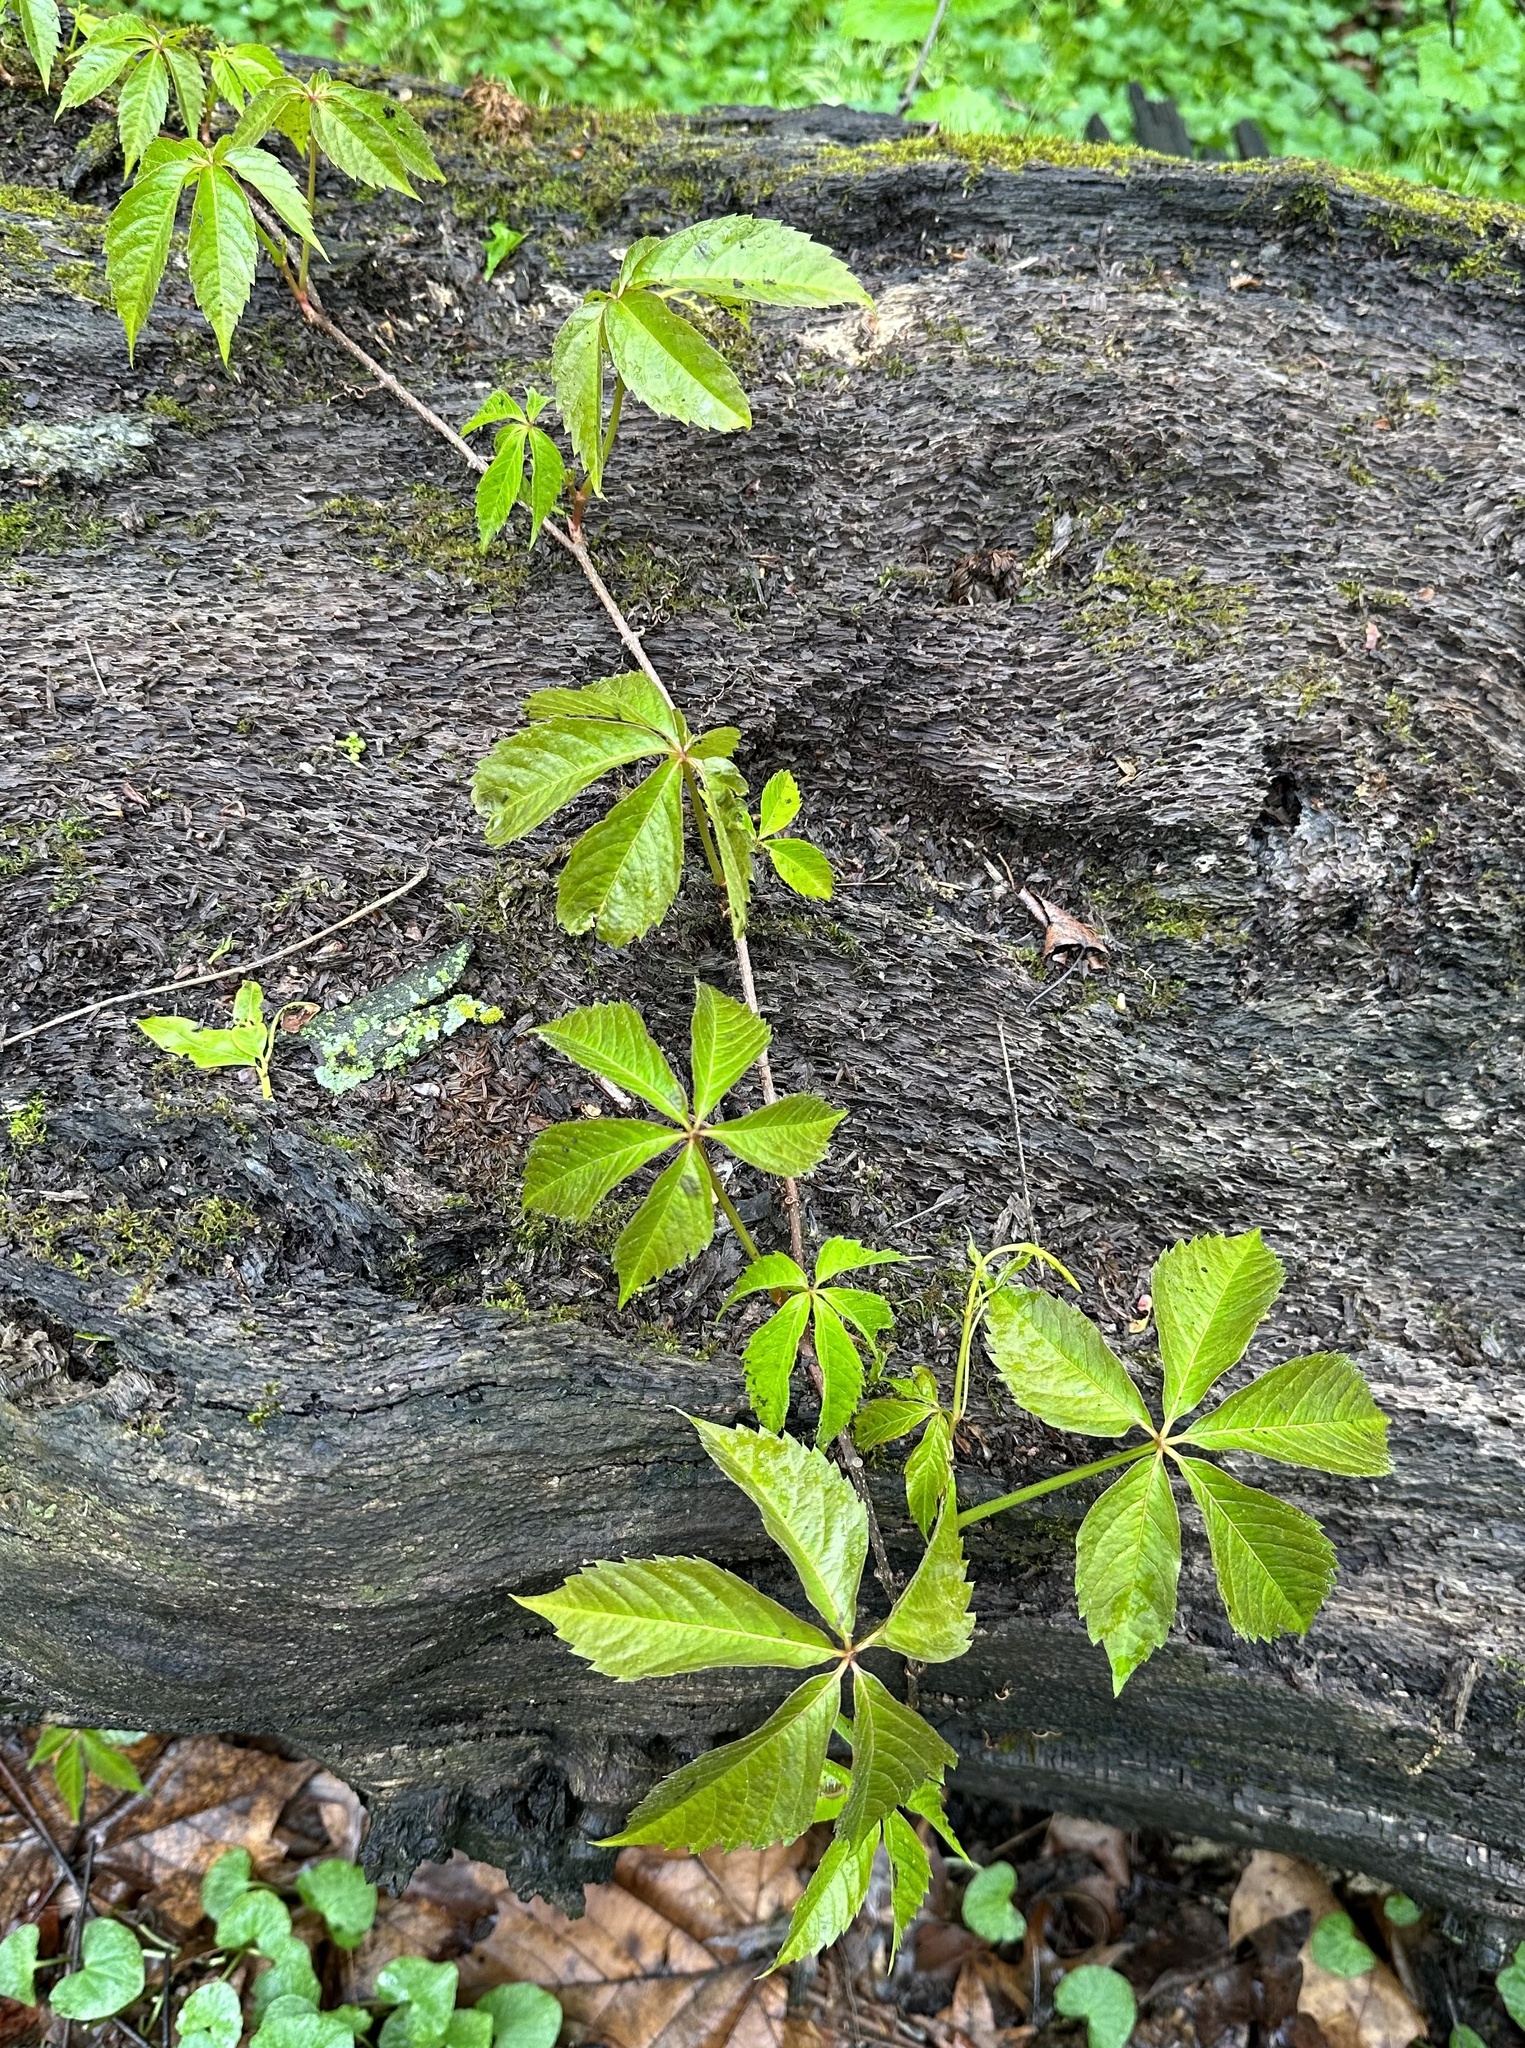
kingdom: Plantae
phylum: Tracheophyta
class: Magnoliopsida
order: Vitales
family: Vitaceae
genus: Parthenocissus
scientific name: Parthenocissus quinquefolia
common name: Virginia-creeper
